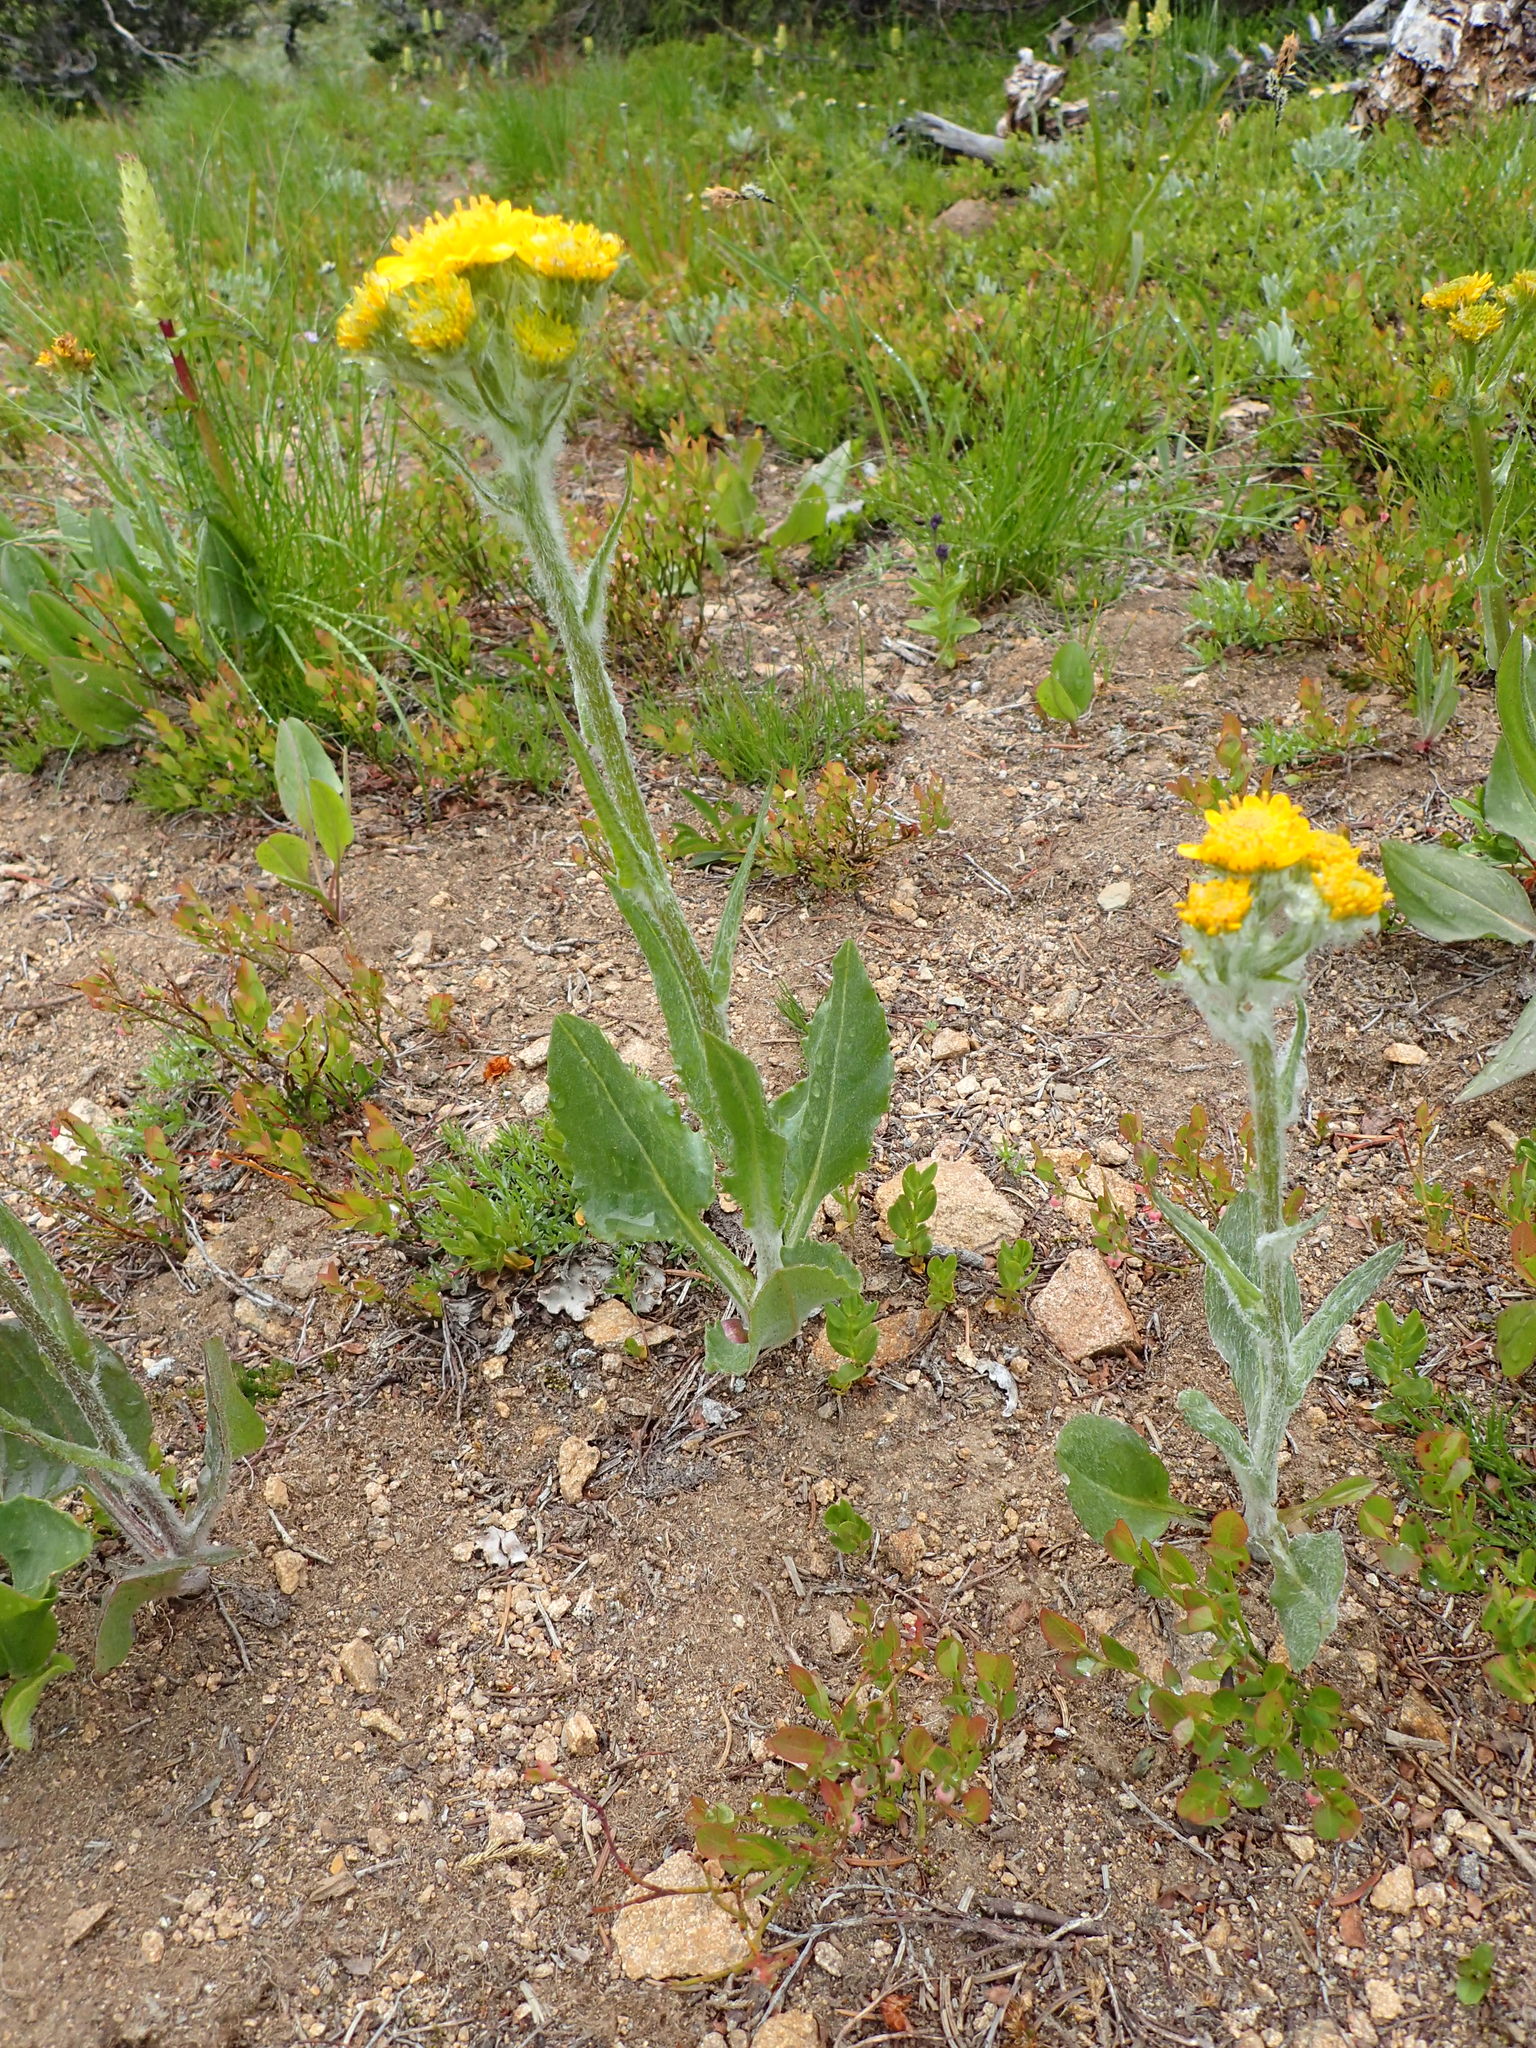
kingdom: Plantae
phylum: Tracheophyta
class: Magnoliopsida
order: Asterales
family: Asteraceae
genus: Senecio
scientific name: Senecio integerrimus
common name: Gaugeplant
